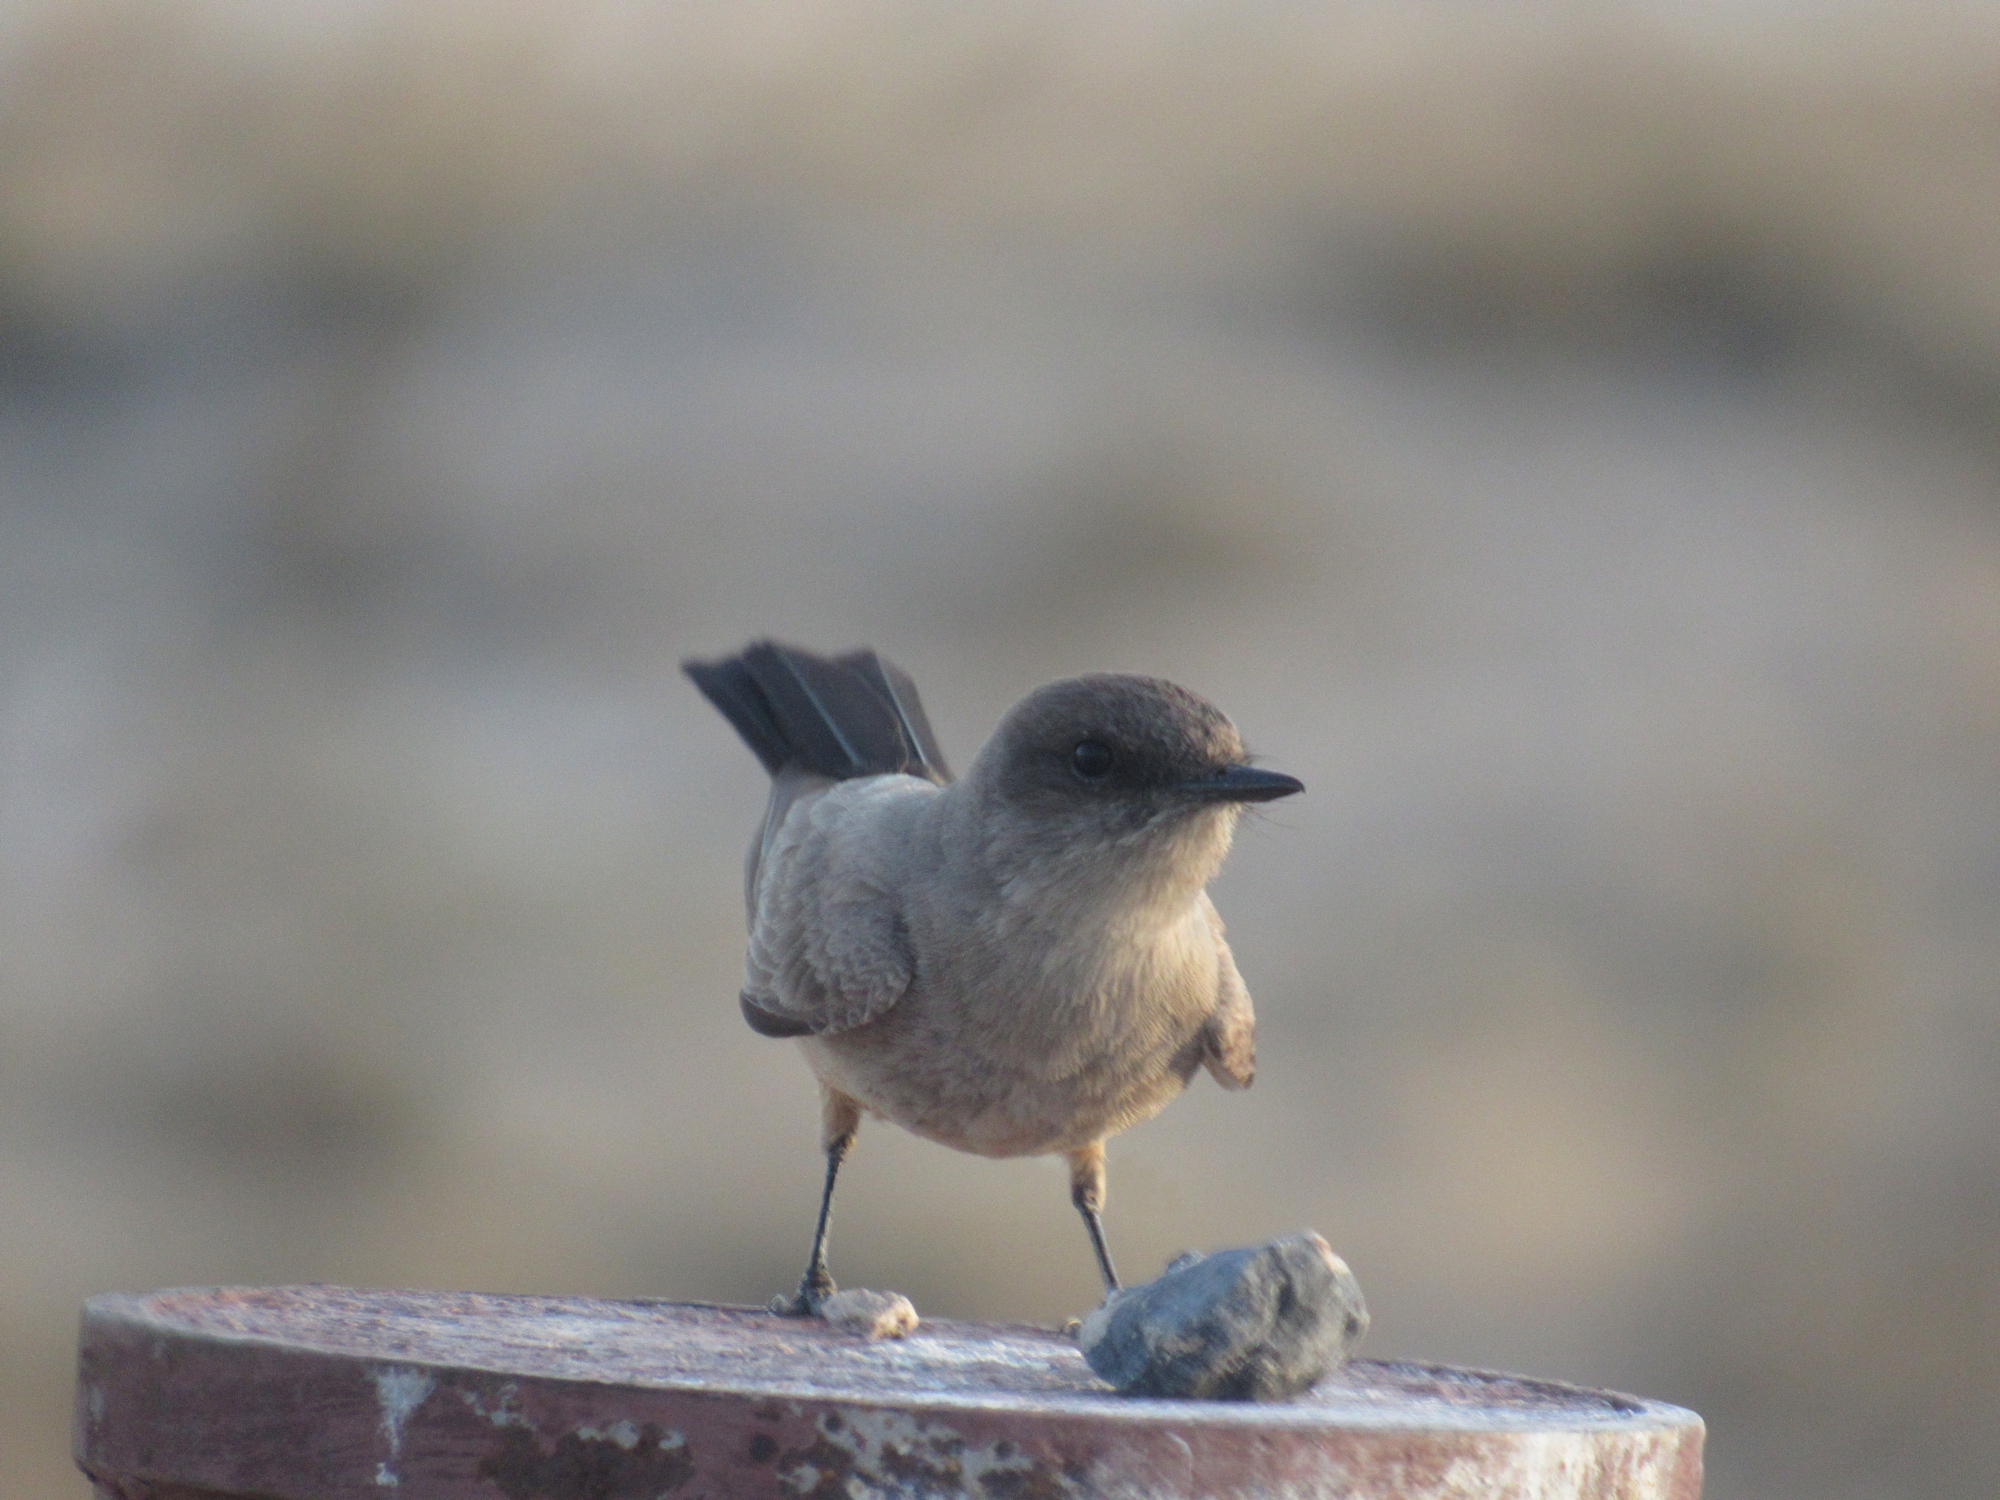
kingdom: Animalia
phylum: Chordata
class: Aves
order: Passeriformes
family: Tyrannidae
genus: Sayornis
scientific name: Sayornis saya
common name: Say's phoebe
